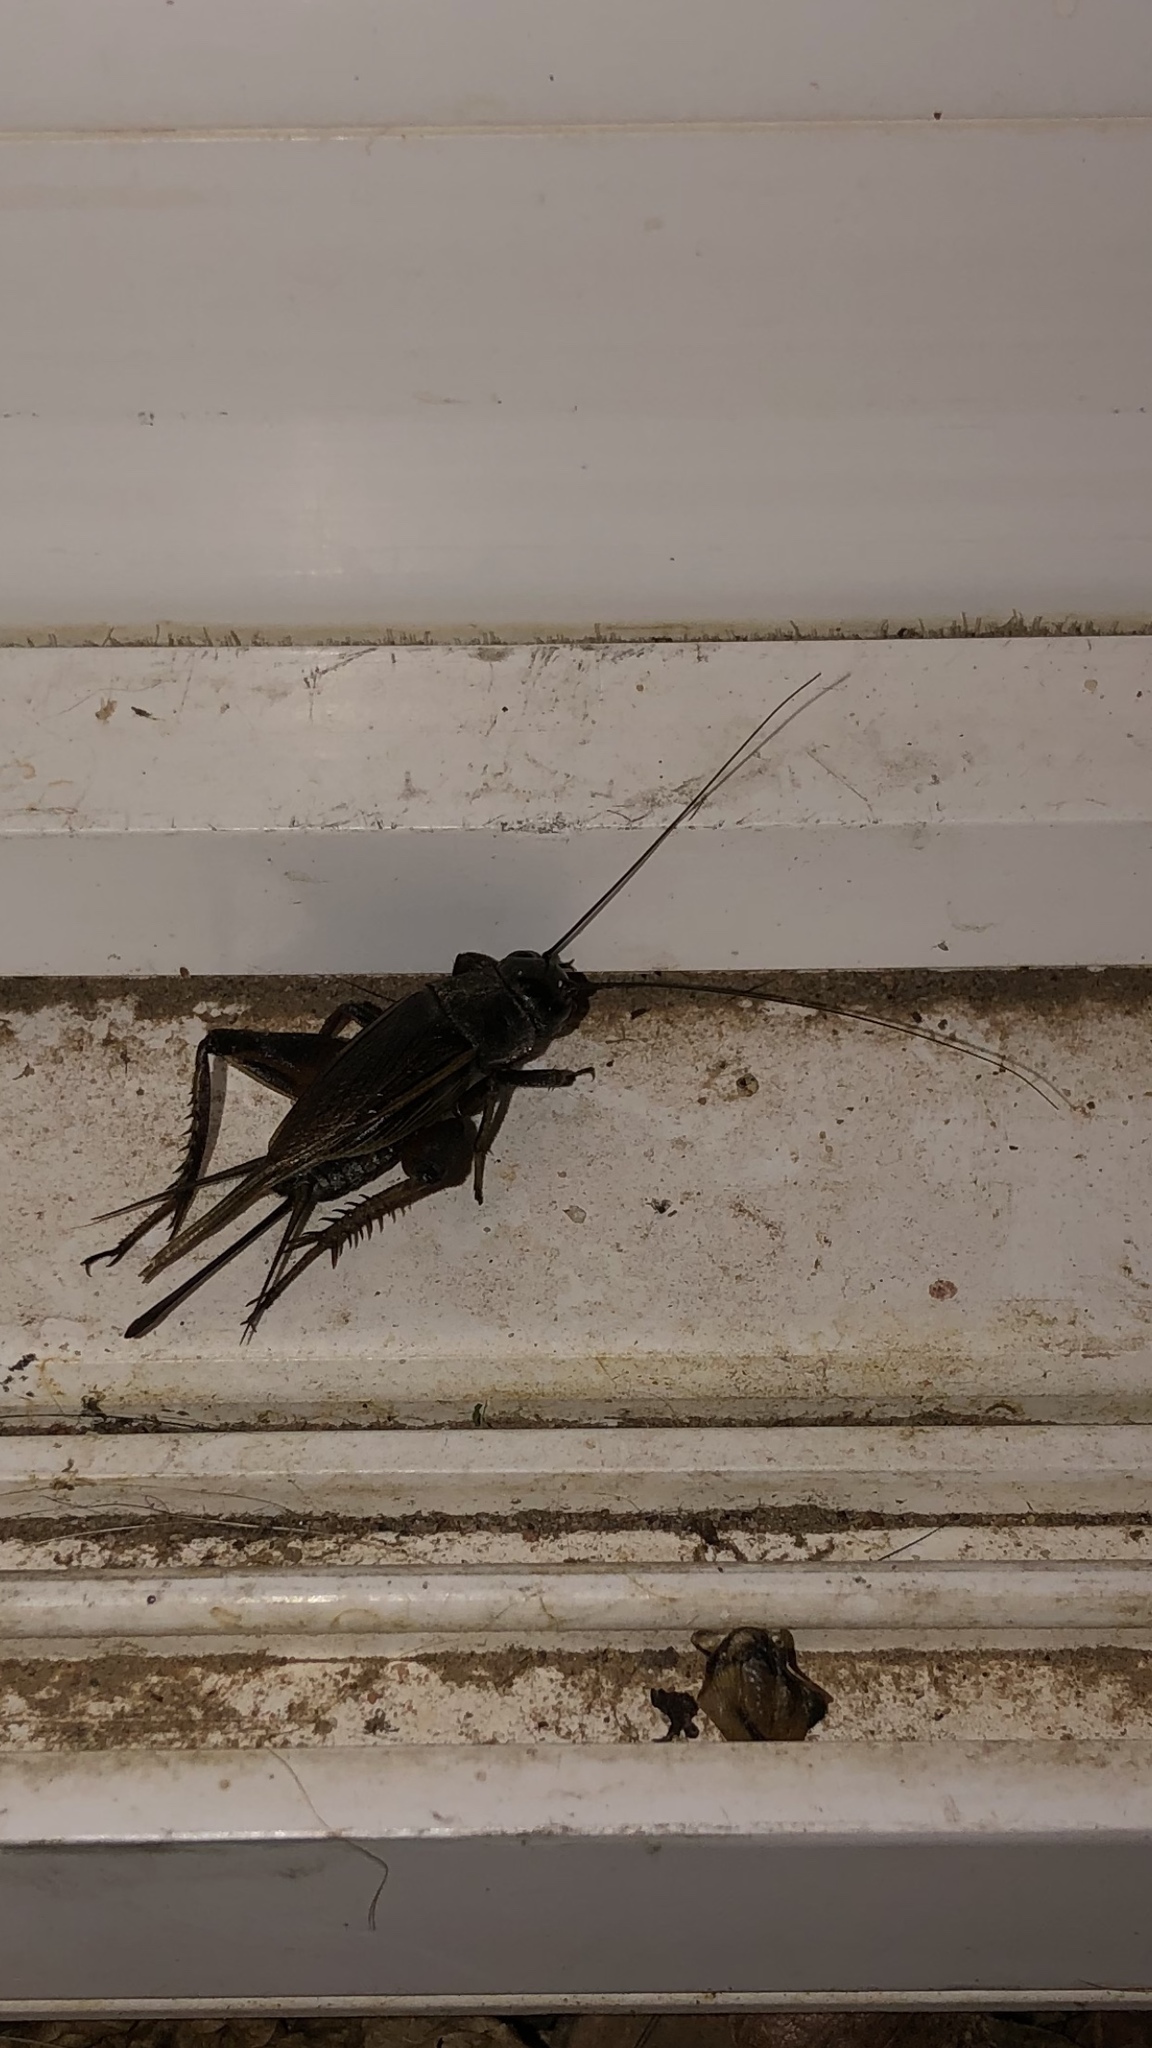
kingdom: Animalia
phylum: Arthropoda
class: Insecta
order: Orthoptera
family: Gryllidae
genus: Gryllus
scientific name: Gryllus pennsylvanicus
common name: Fall field cricket
